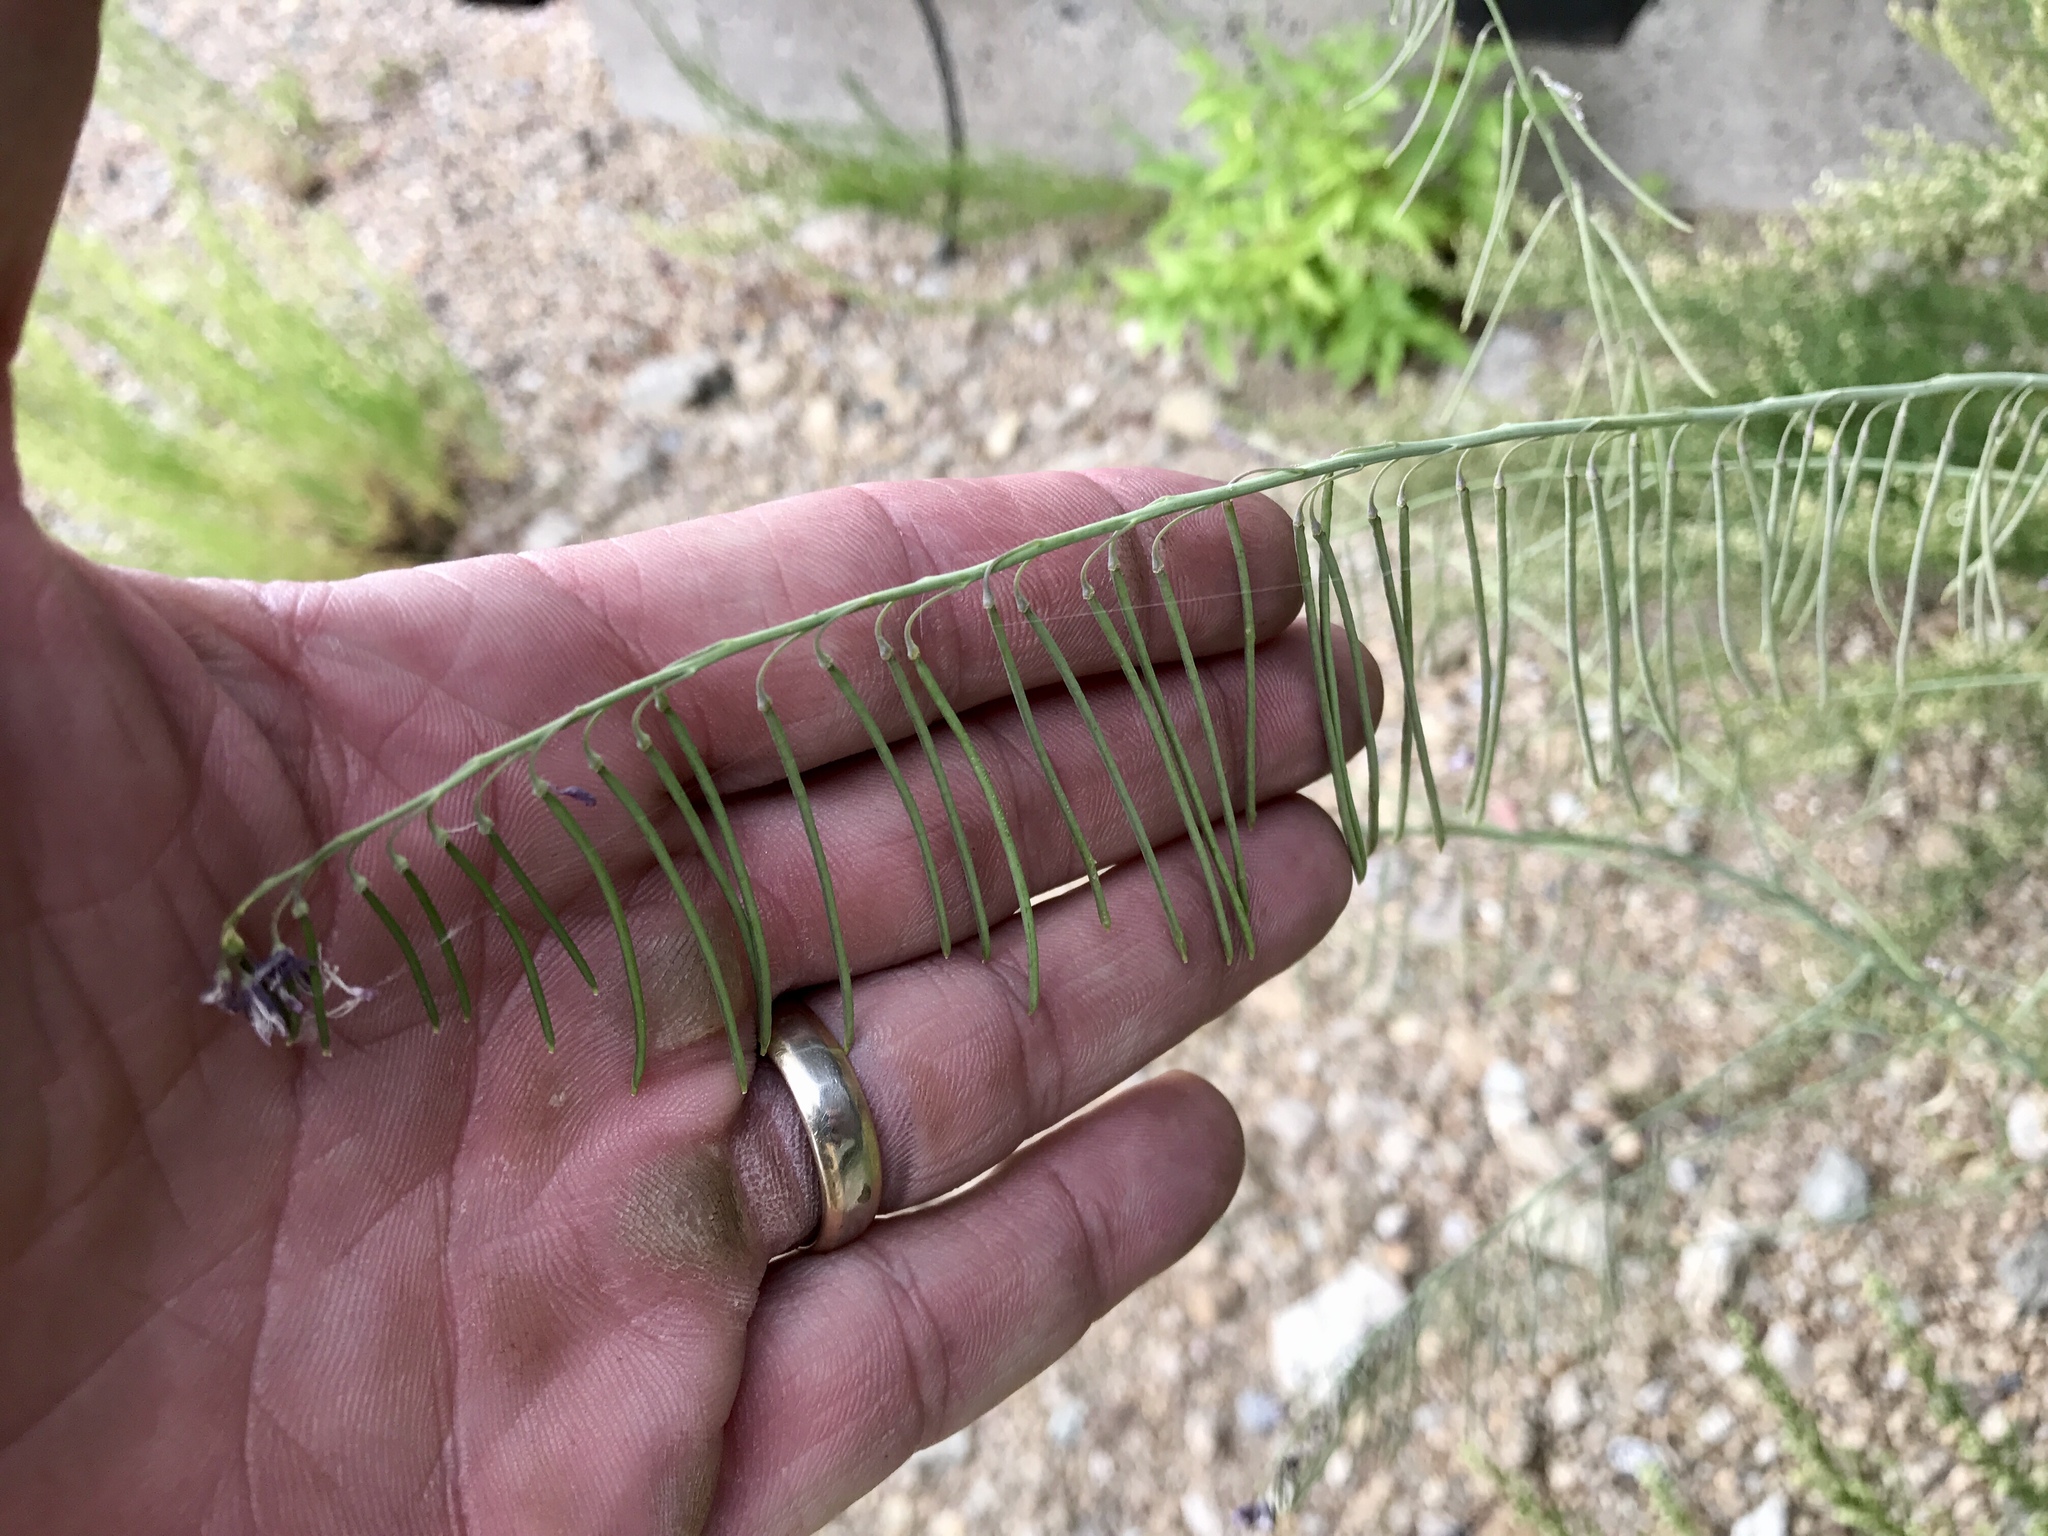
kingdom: Plantae
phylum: Tracheophyta
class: Magnoliopsida
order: Brassicales
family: Brassicaceae
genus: Hesperidanthus
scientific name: Hesperidanthus linearifolius
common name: Slim-leaf plains mustard
